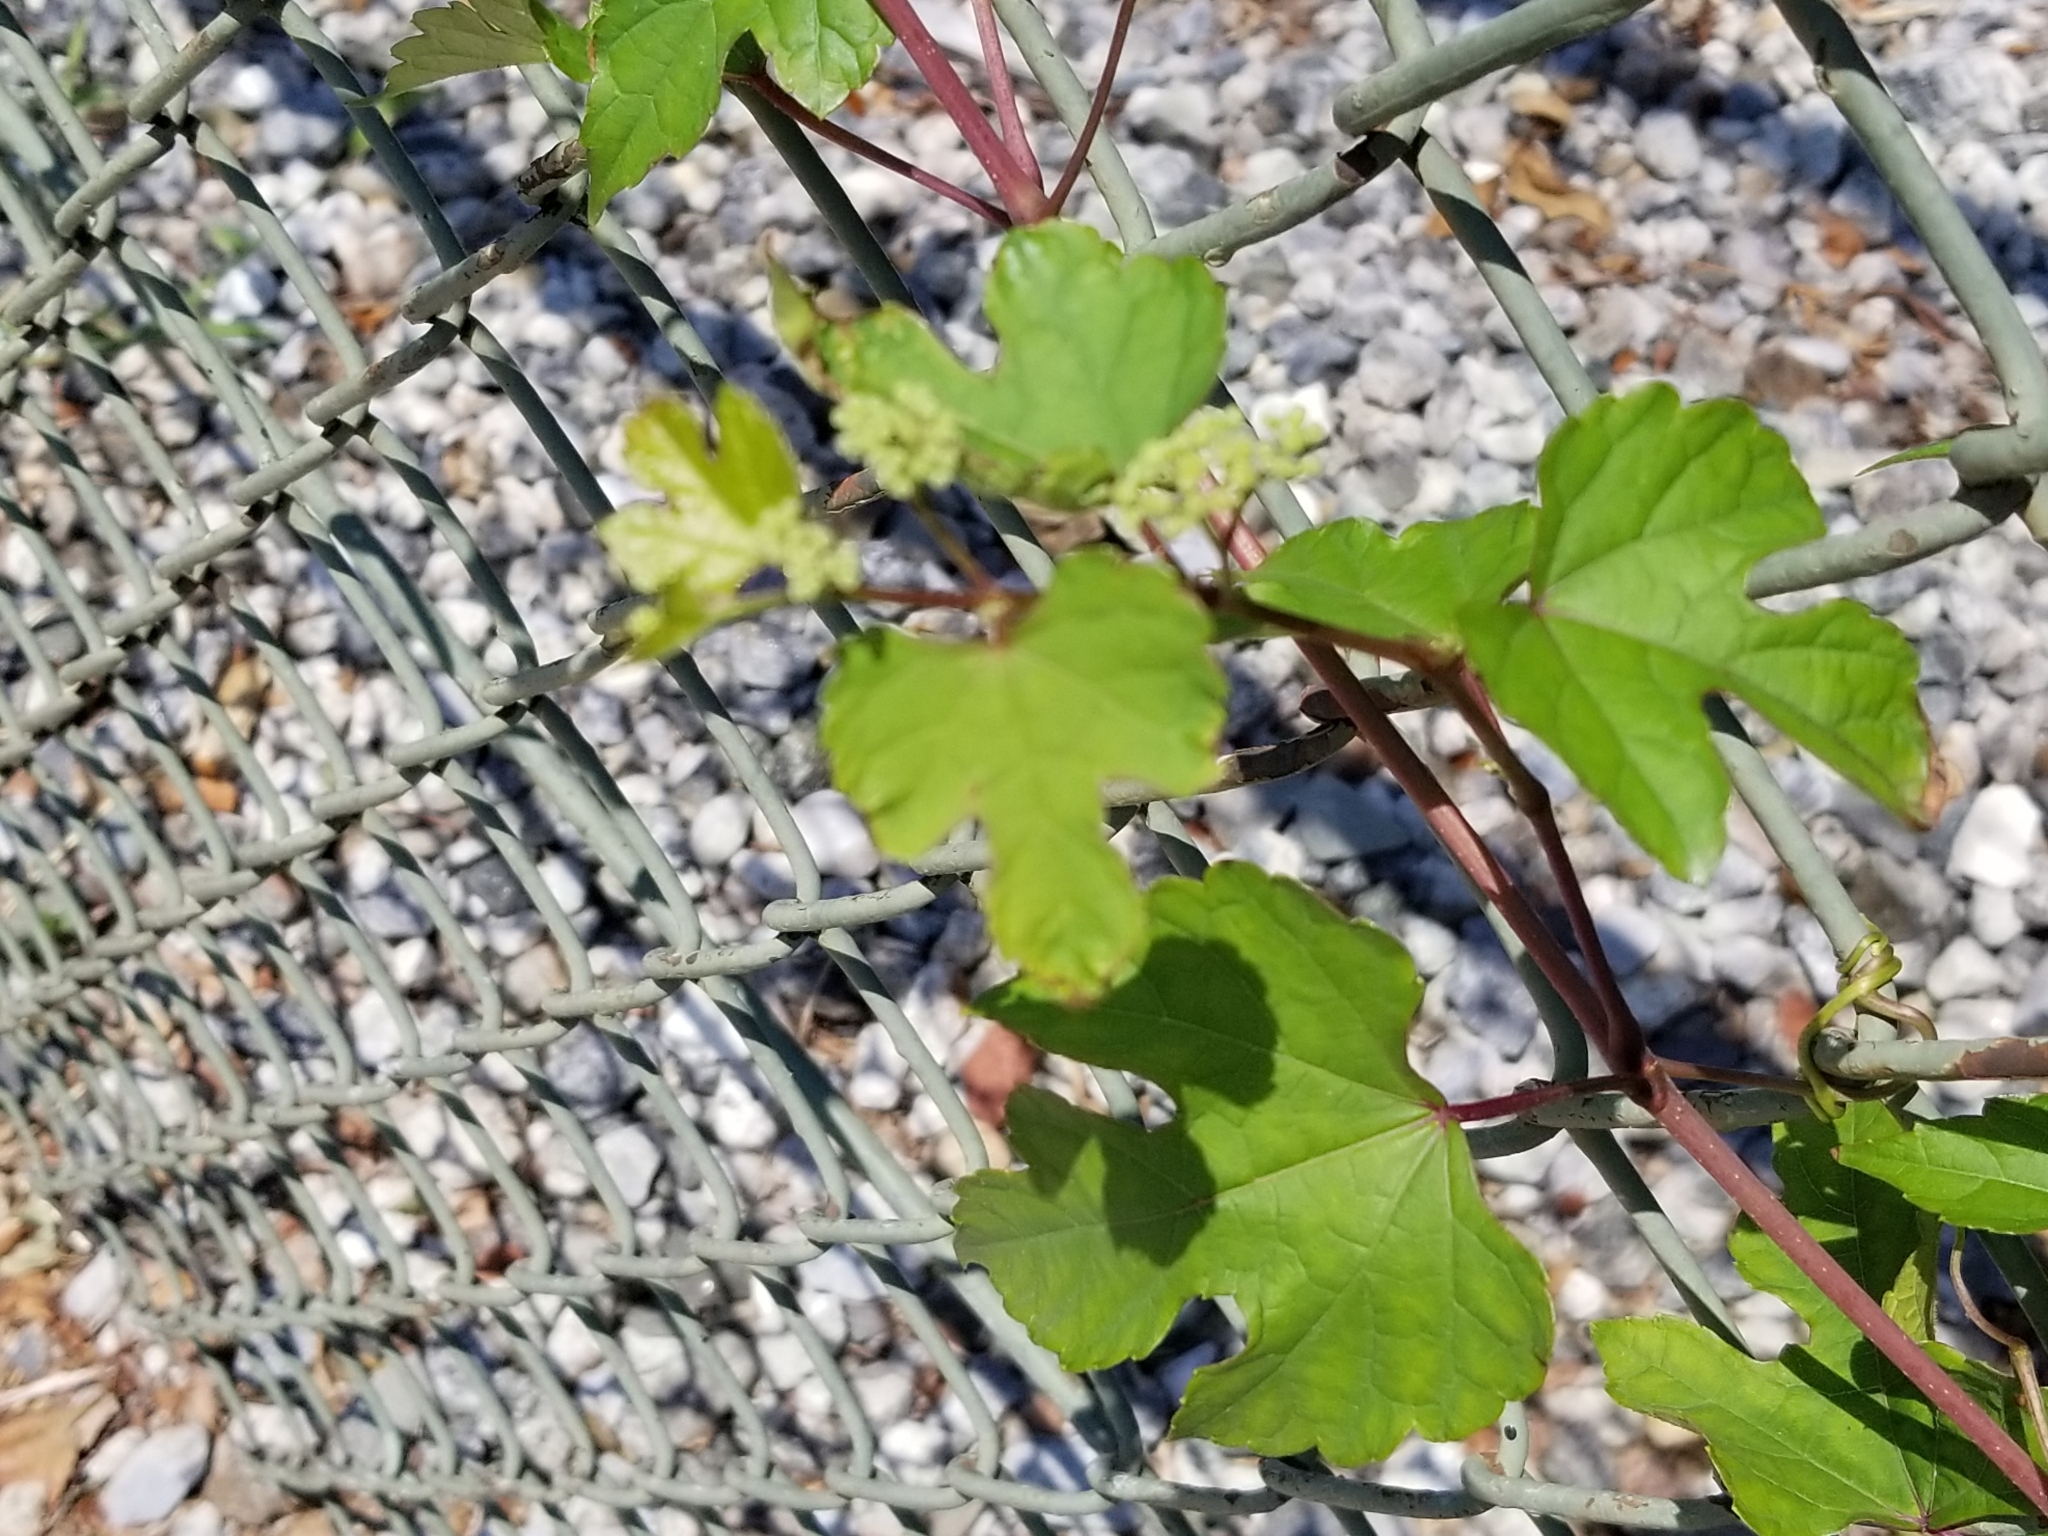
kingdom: Plantae
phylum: Tracheophyta
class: Magnoliopsida
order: Vitales
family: Vitaceae
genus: Ampelopsis
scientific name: Ampelopsis glandulosa
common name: Amur peppervine
